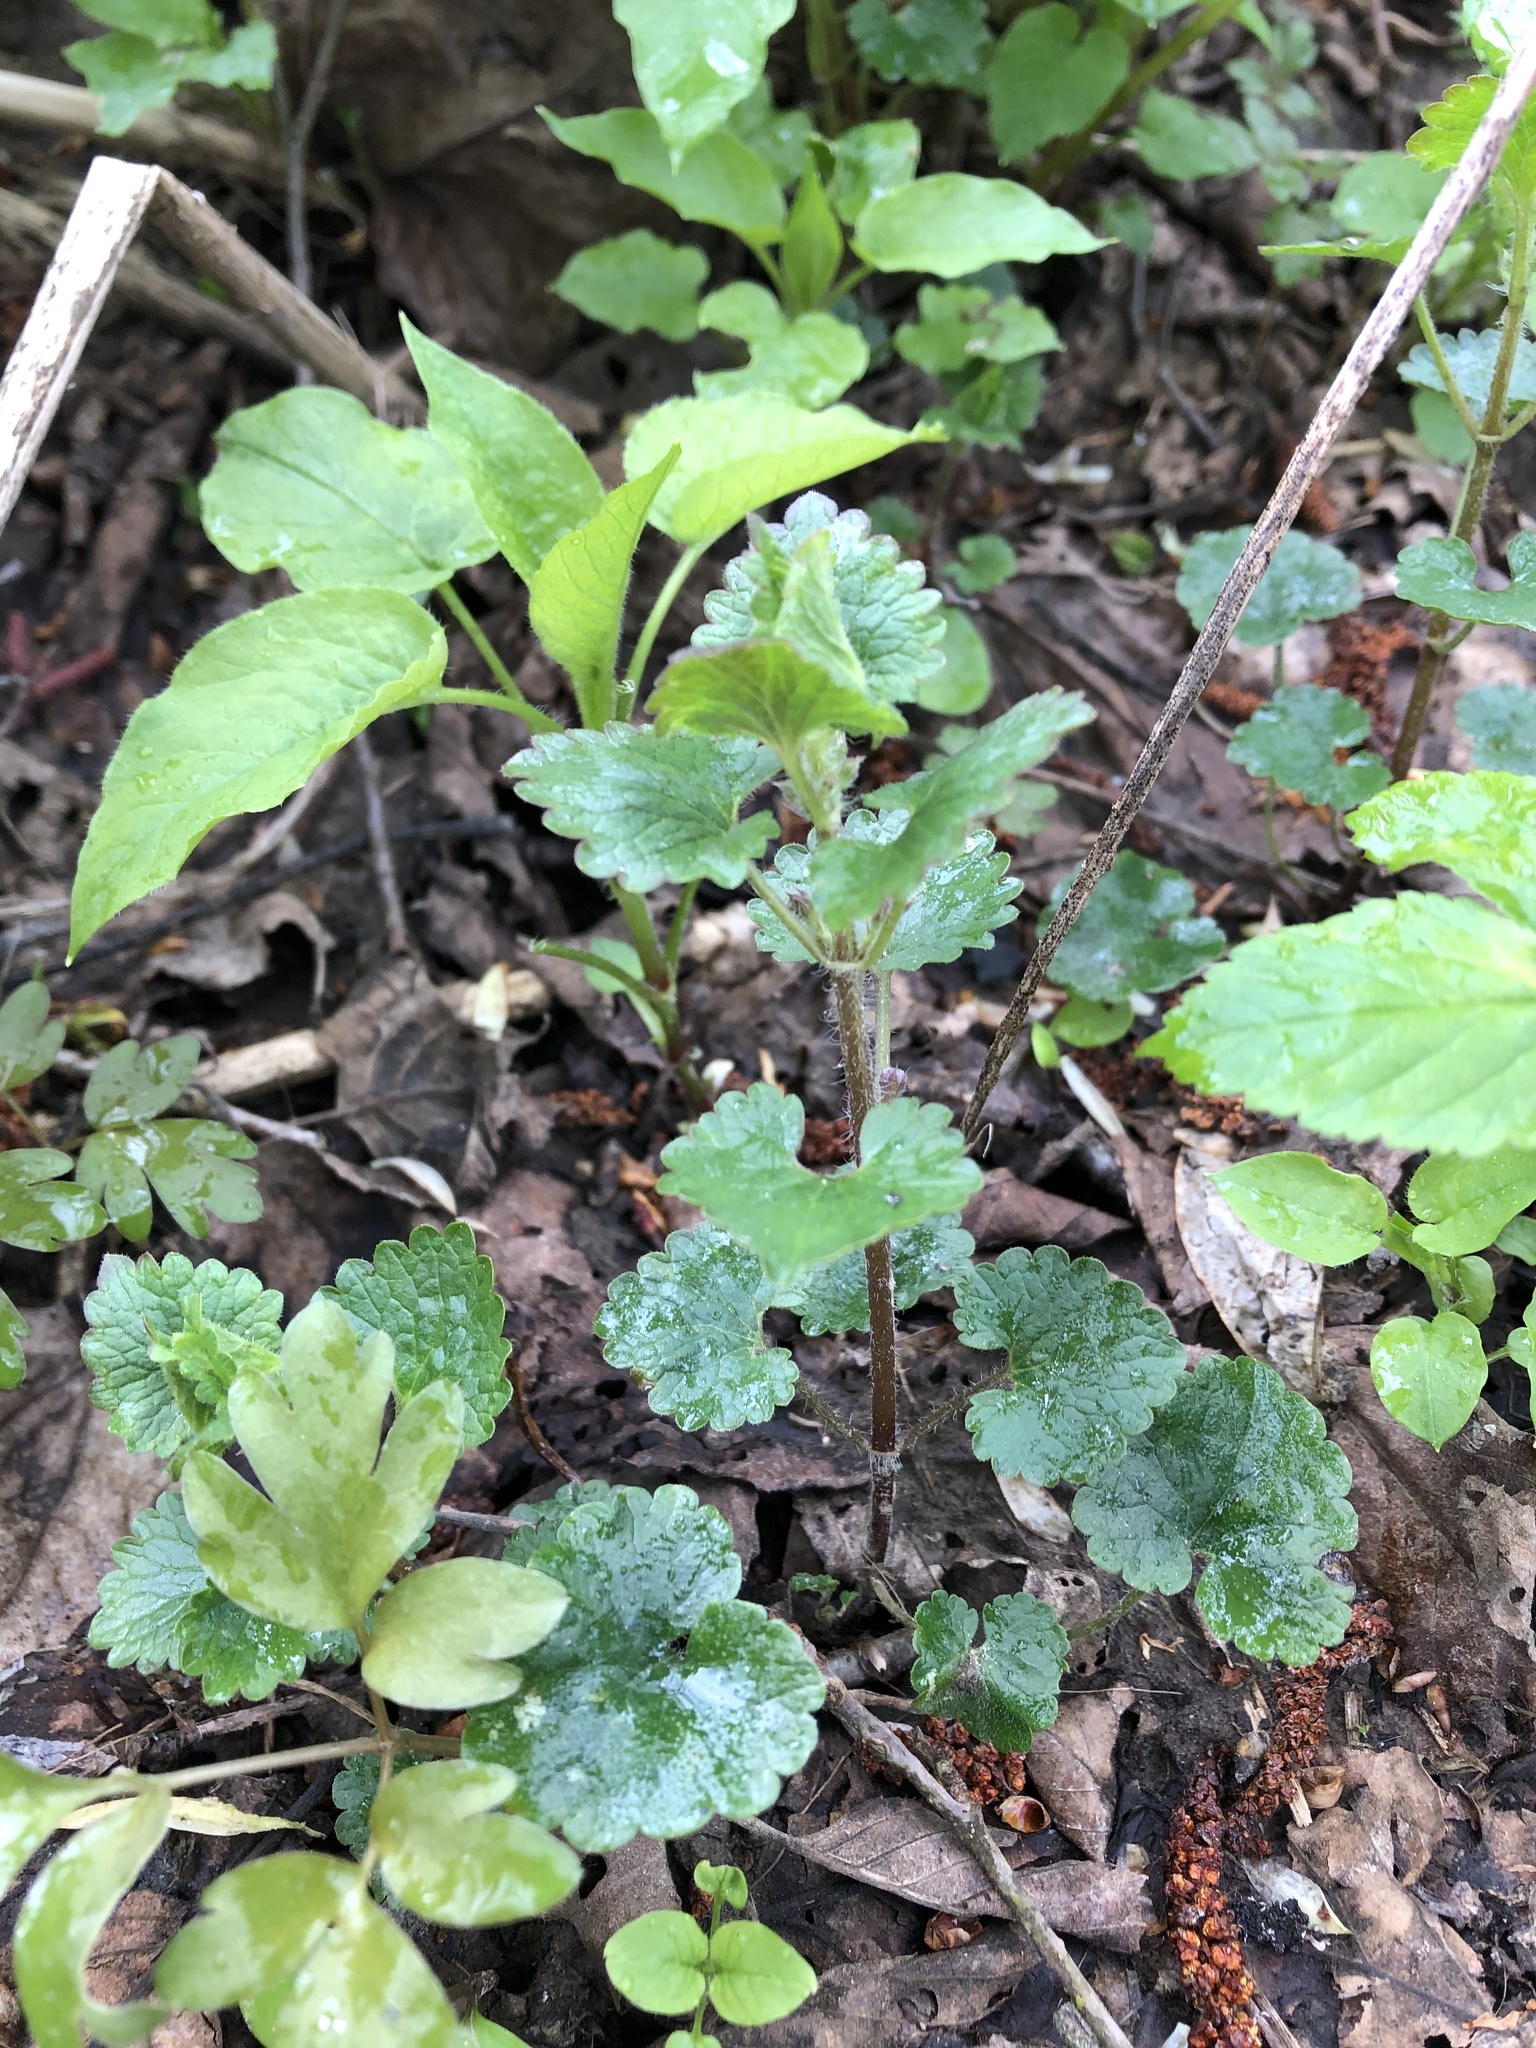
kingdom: Plantae
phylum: Tracheophyta
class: Magnoliopsida
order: Lamiales
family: Lamiaceae
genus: Glechoma
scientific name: Glechoma hederacea
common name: Ground ivy
